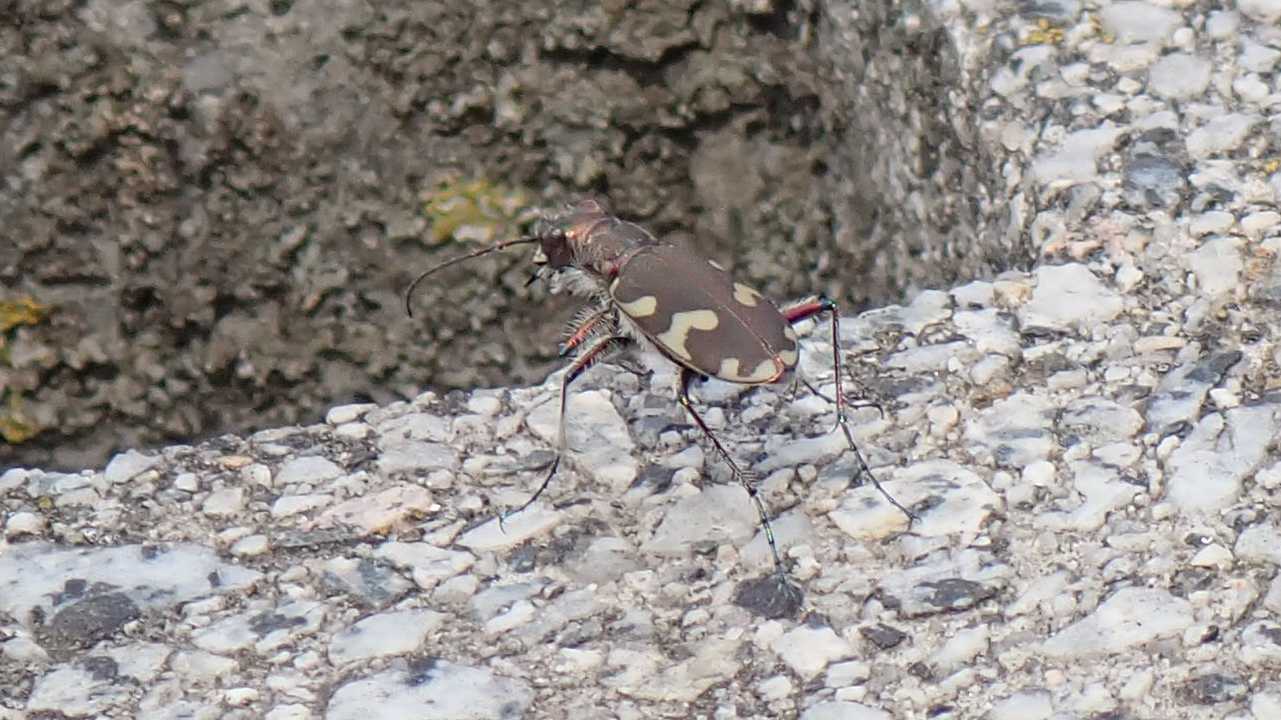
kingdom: Animalia
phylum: Arthropoda
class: Insecta
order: Coleoptera
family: Carabidae
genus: Cicindela
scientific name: Cicindela hybrida
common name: Northern dune tiger beetle
